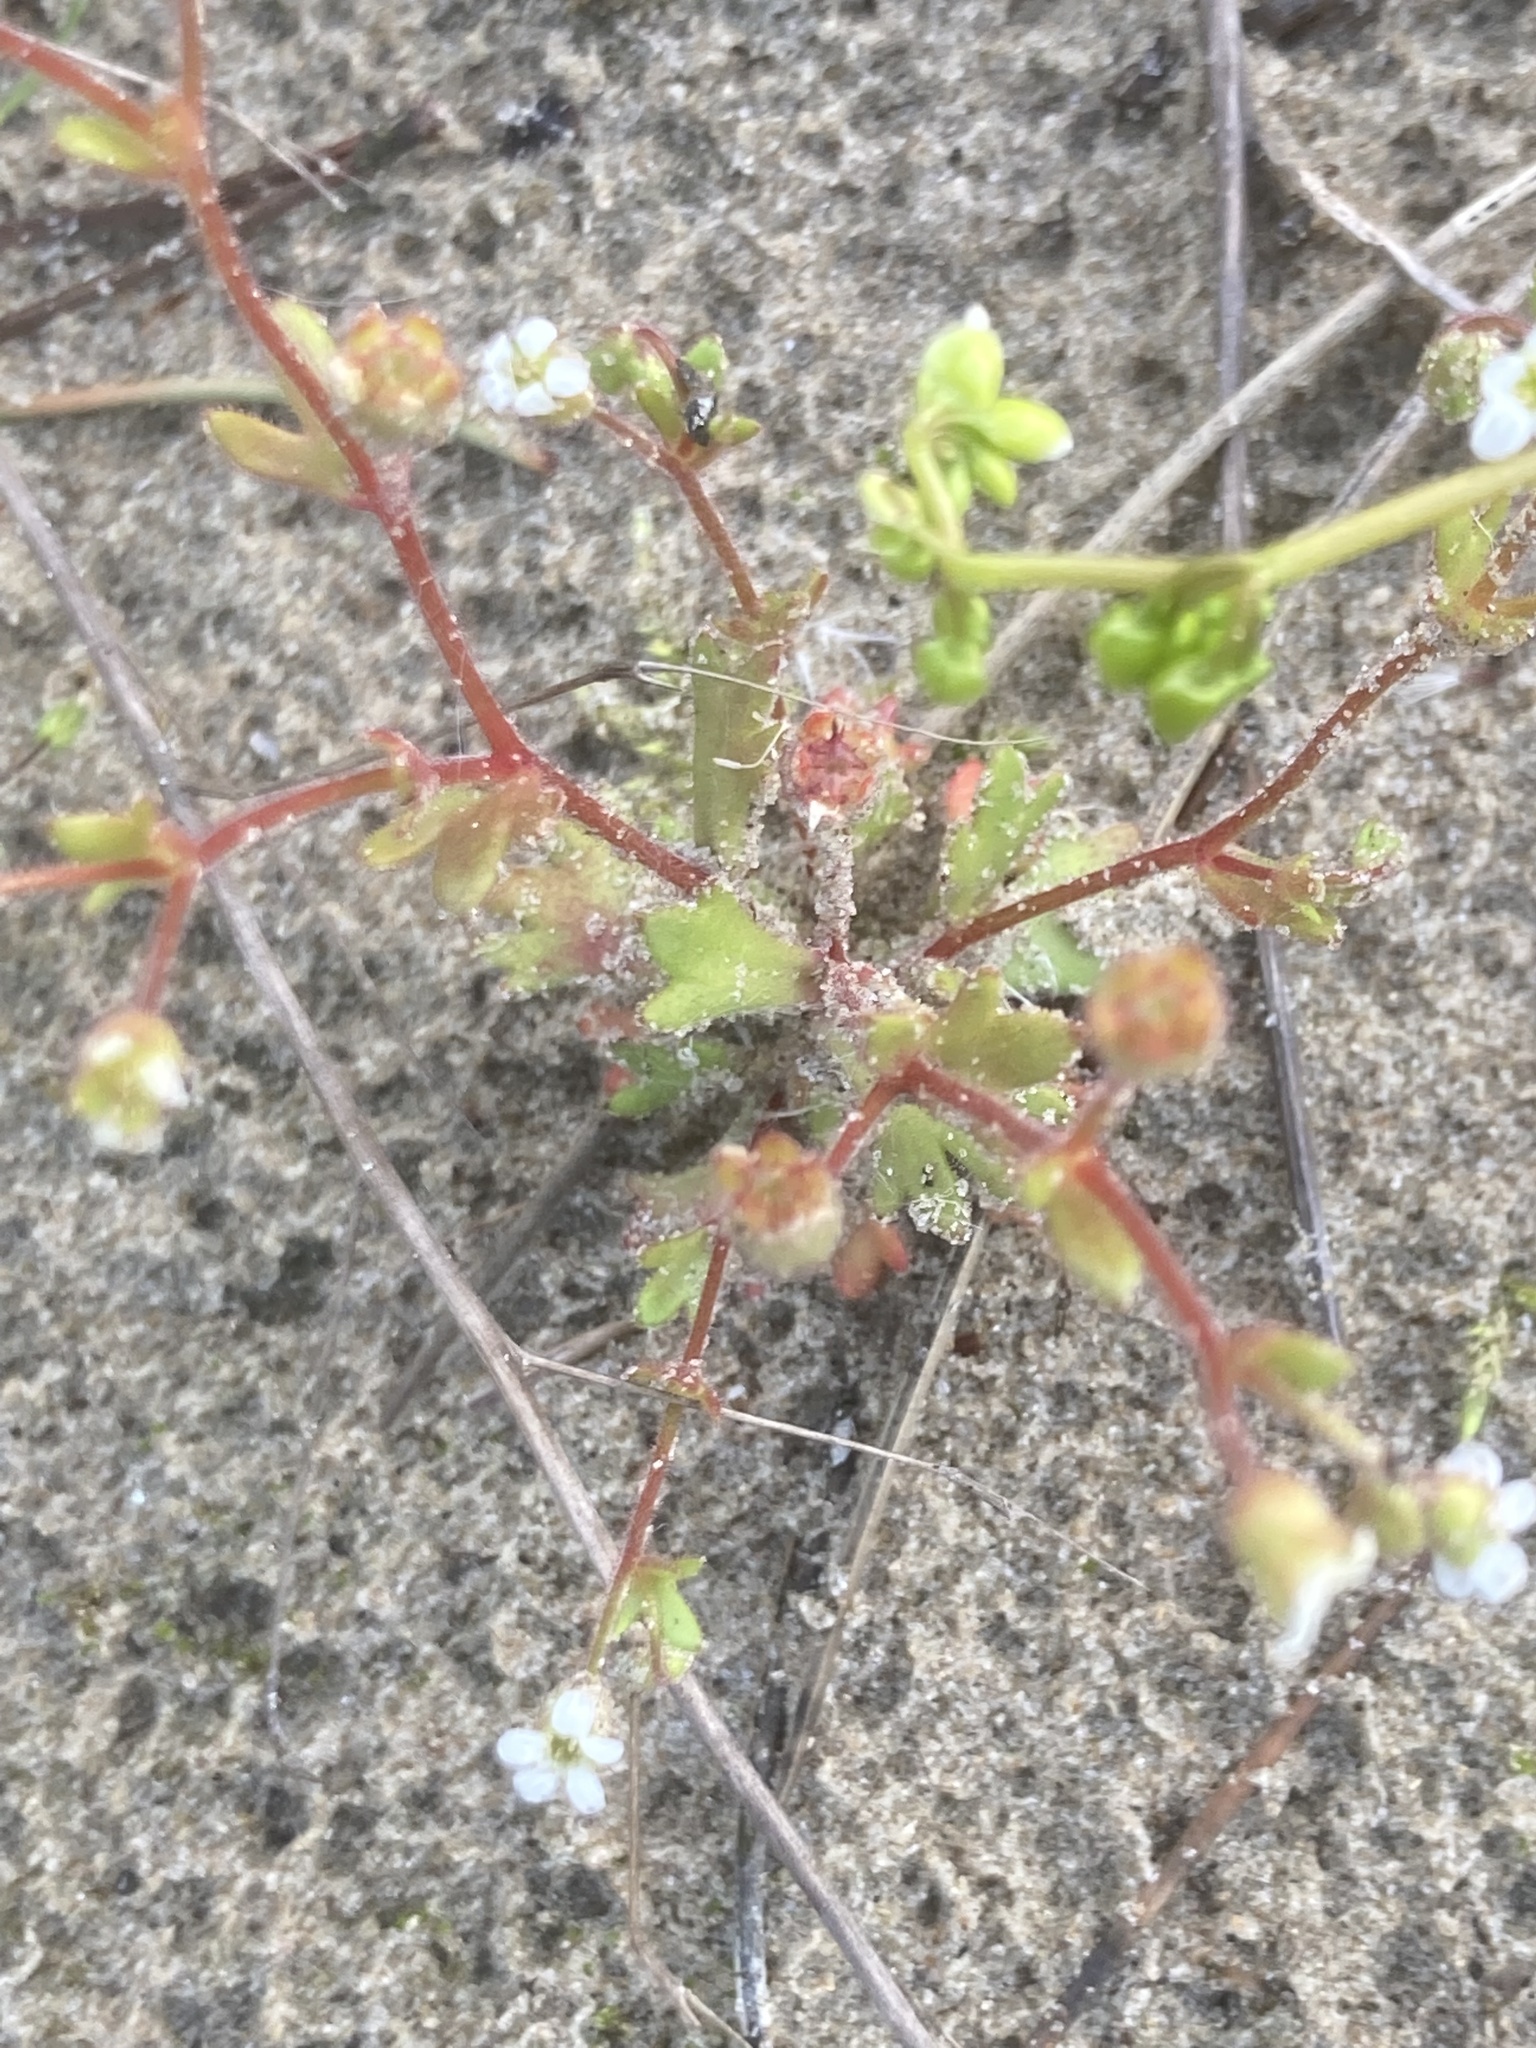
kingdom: Plantae
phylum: Tracheophyta
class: Magnoliopsida
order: Saxifragales
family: Saxifragaceae
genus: Saxifraga
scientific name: Saxifraga tridactylites
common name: Rue-leaved saxifrage
